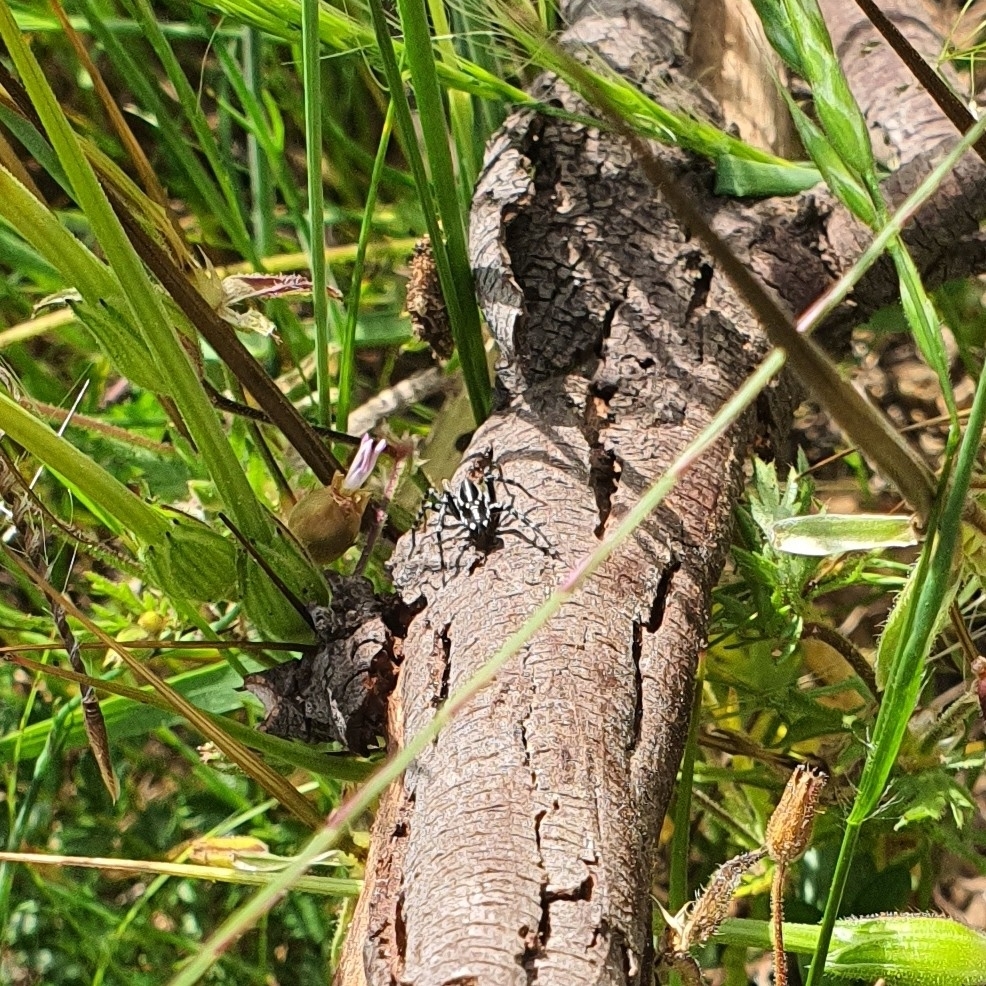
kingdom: Animalia
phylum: Arthropoda
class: Arachnida
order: Araneae
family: Corinnidae
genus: Nyssus
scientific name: Nyssus coloripes
